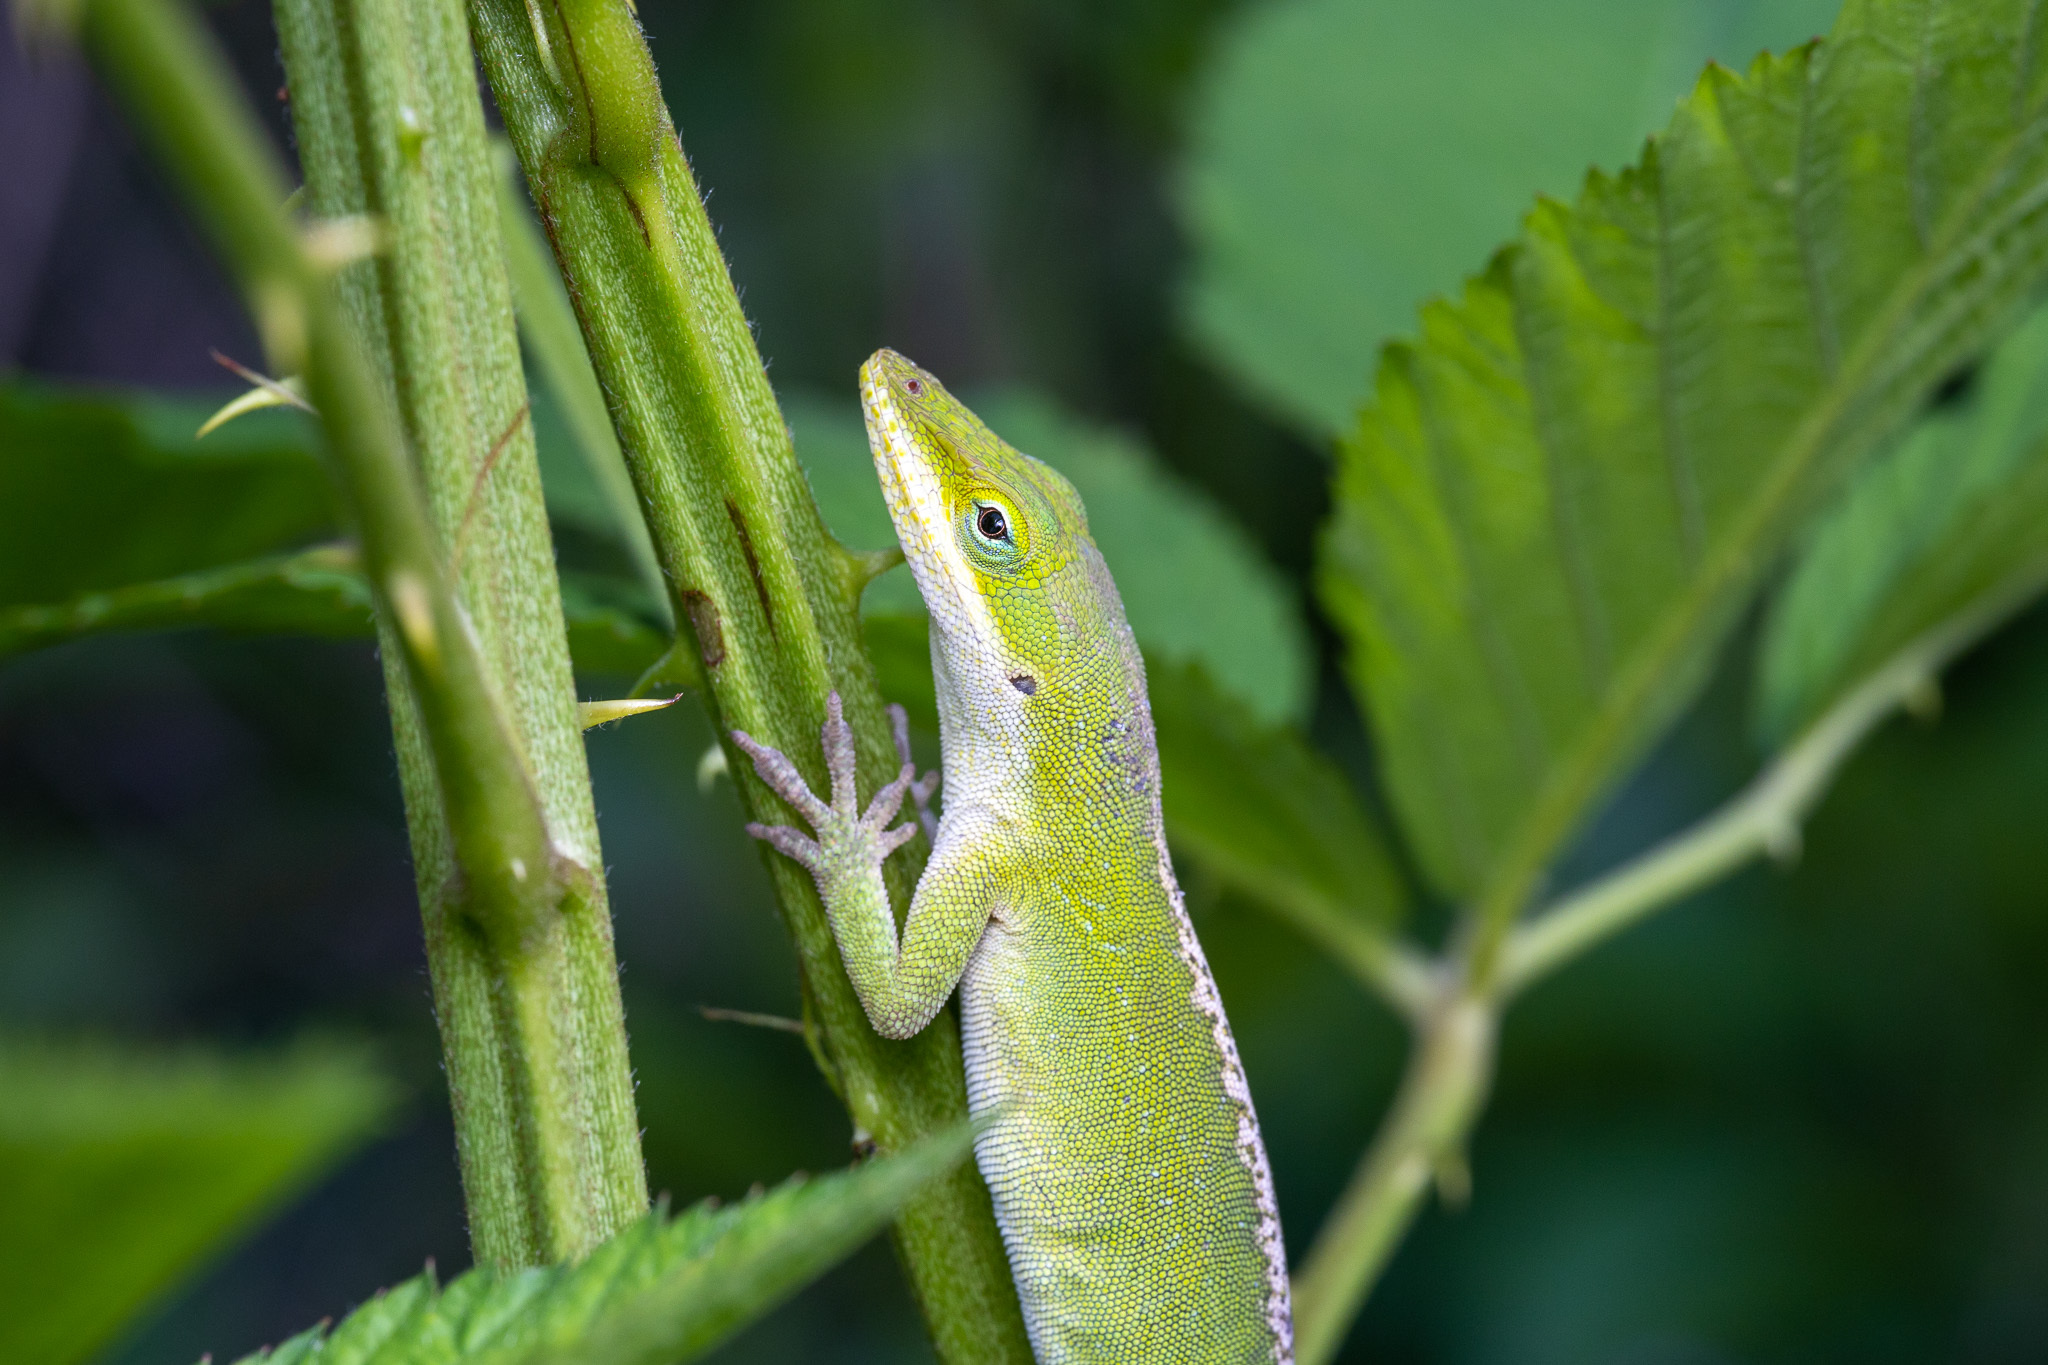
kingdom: Animalia
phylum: Chordata
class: Squamata
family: Dactyloidae
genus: Anolis
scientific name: Anolis carolinensis
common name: Green anole
